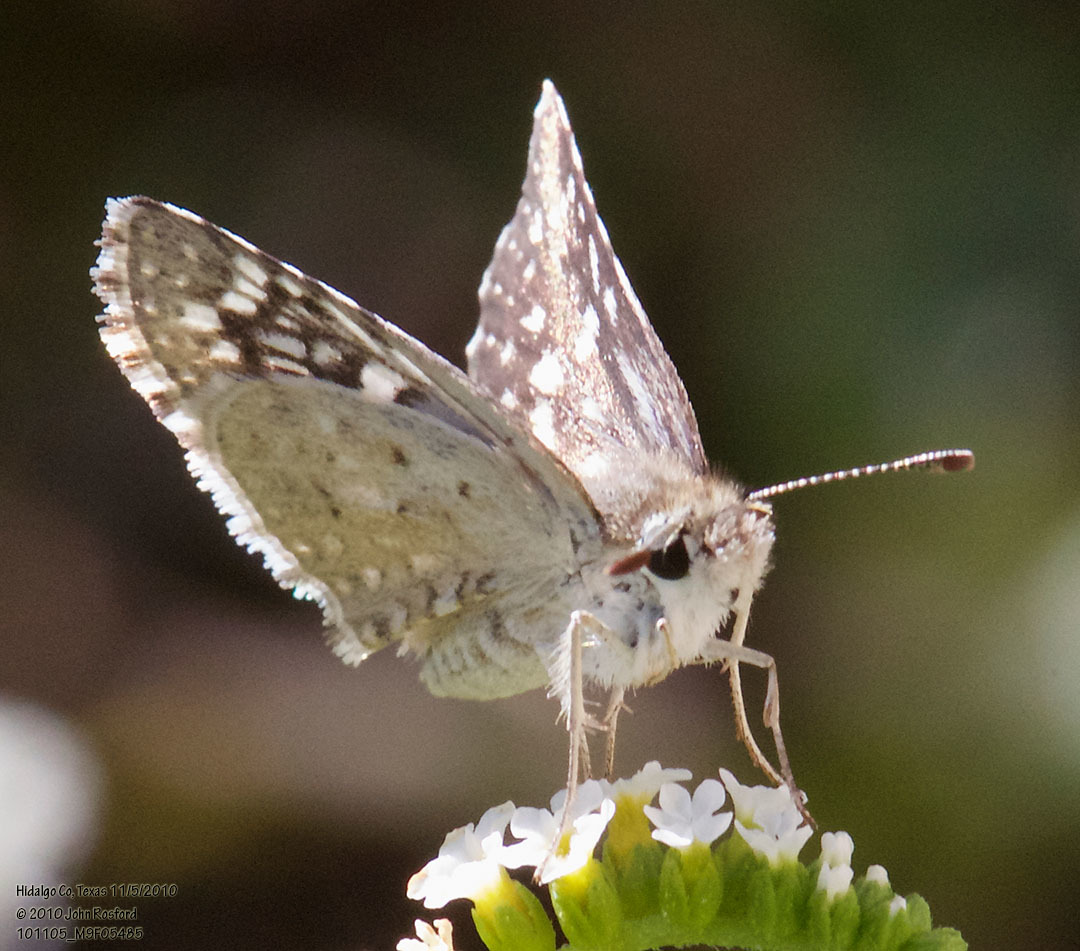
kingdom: Animalia
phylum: Arthropoda
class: Insecta
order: Lepidoptera
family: Hesperiidae
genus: Burnsius
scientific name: Burnsius philetas
